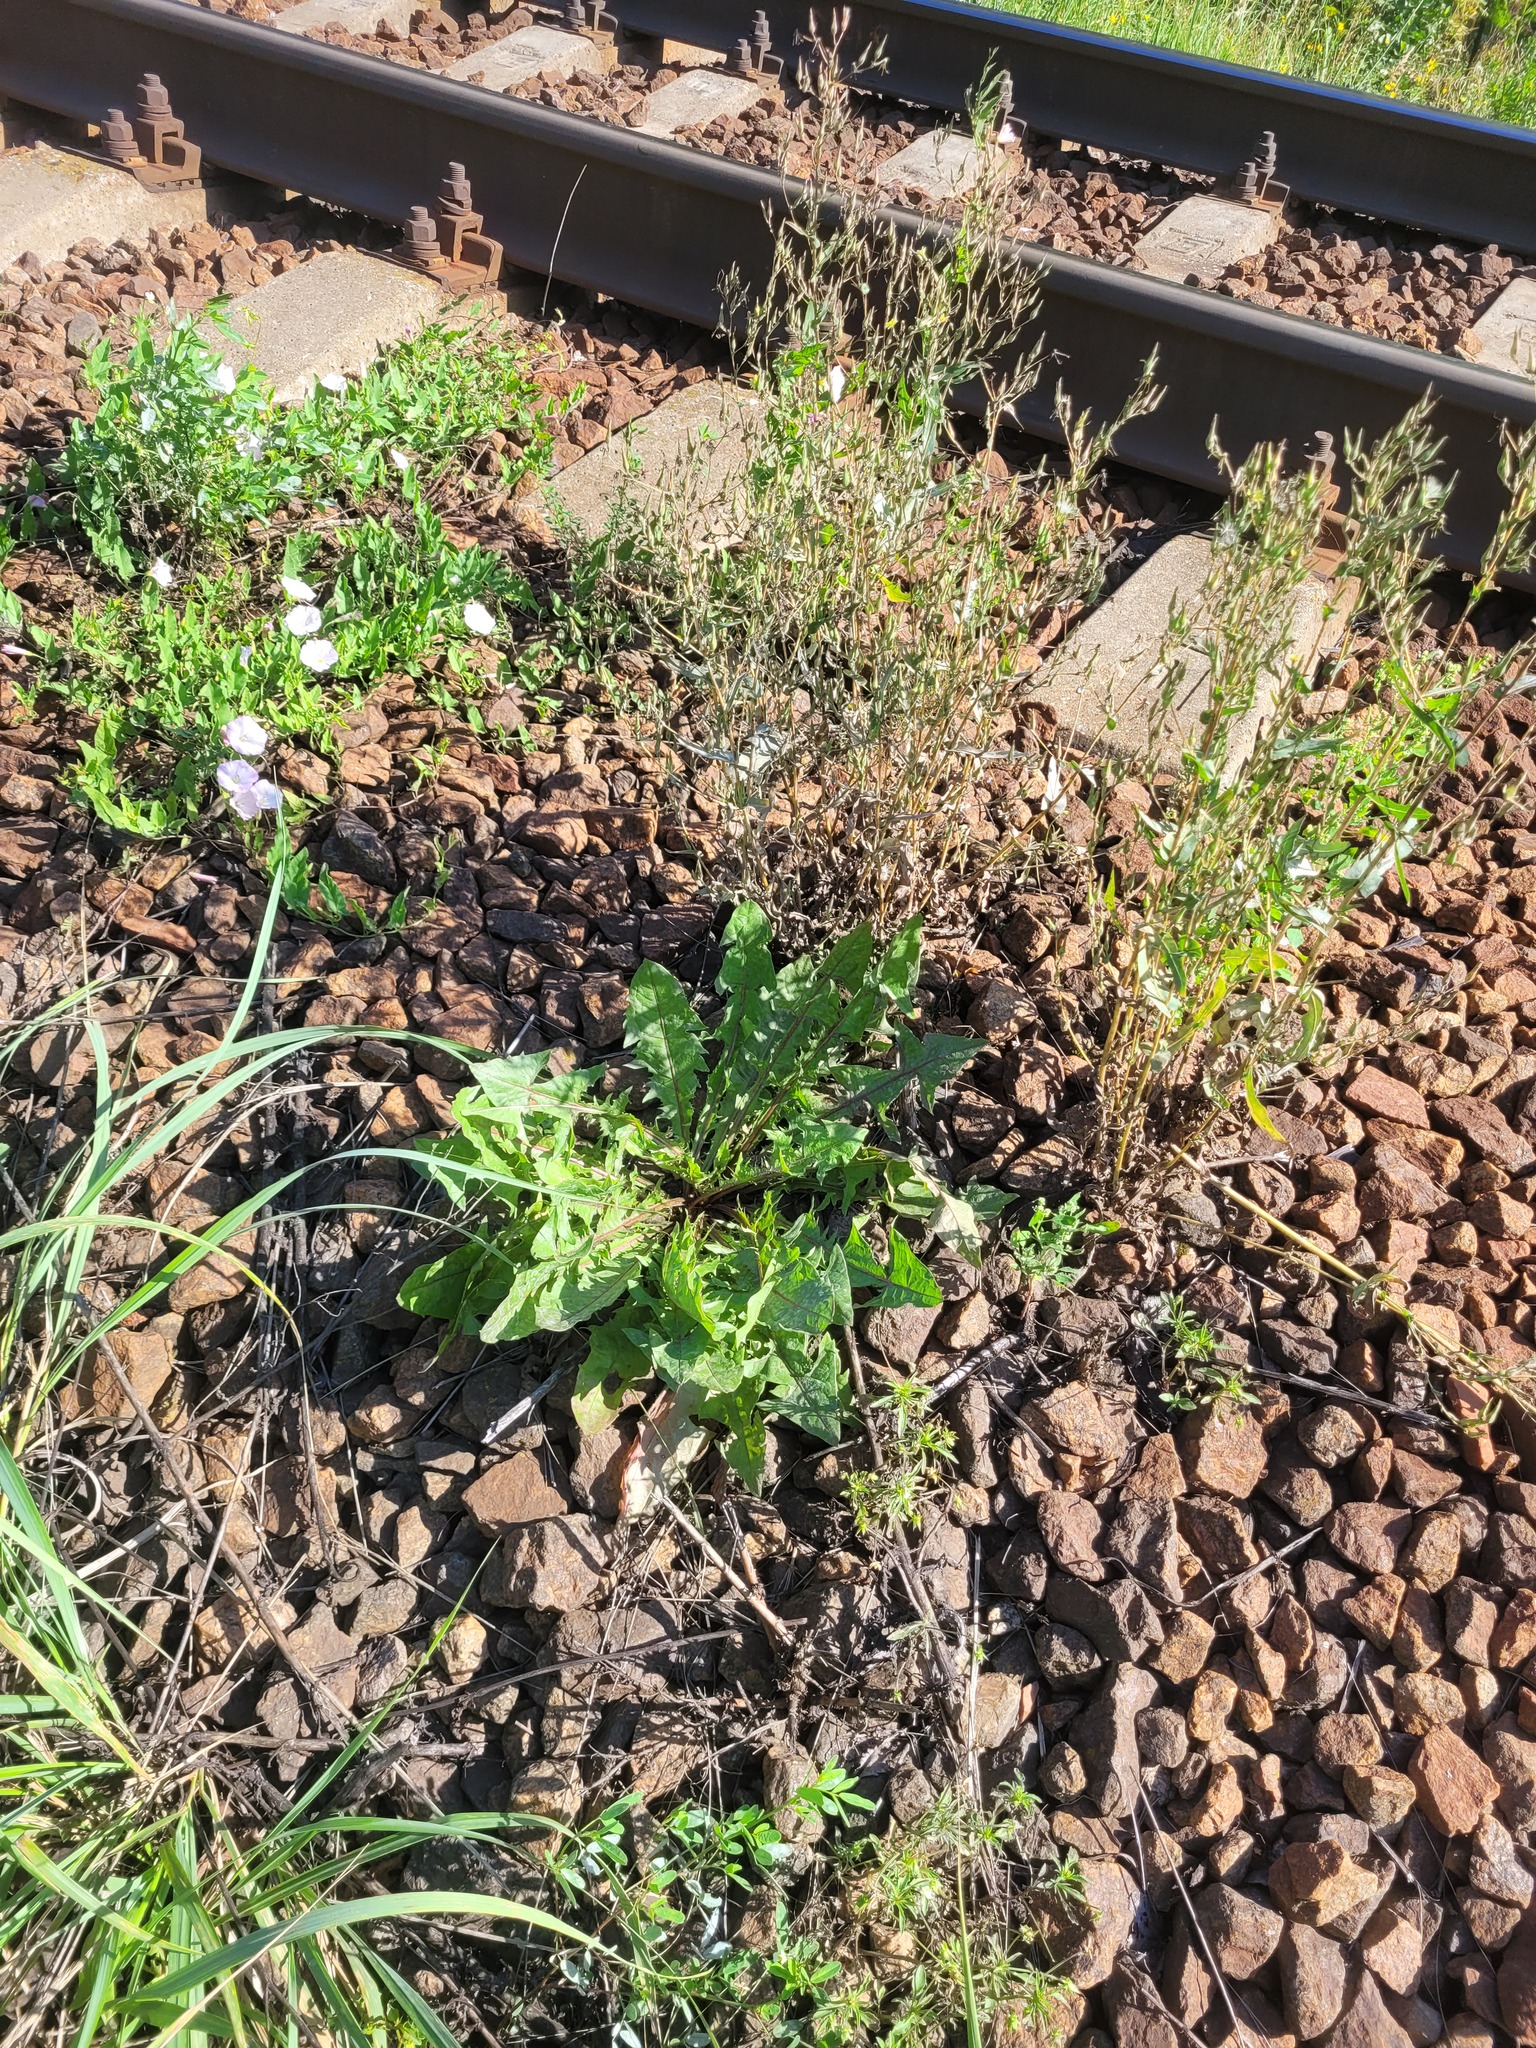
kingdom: Plantae
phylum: Tracheophyta
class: Magnoliopsida
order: Asterales
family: Asteraceae
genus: Taraxacum
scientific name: Taraxacum officinale
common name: Common dandelion
